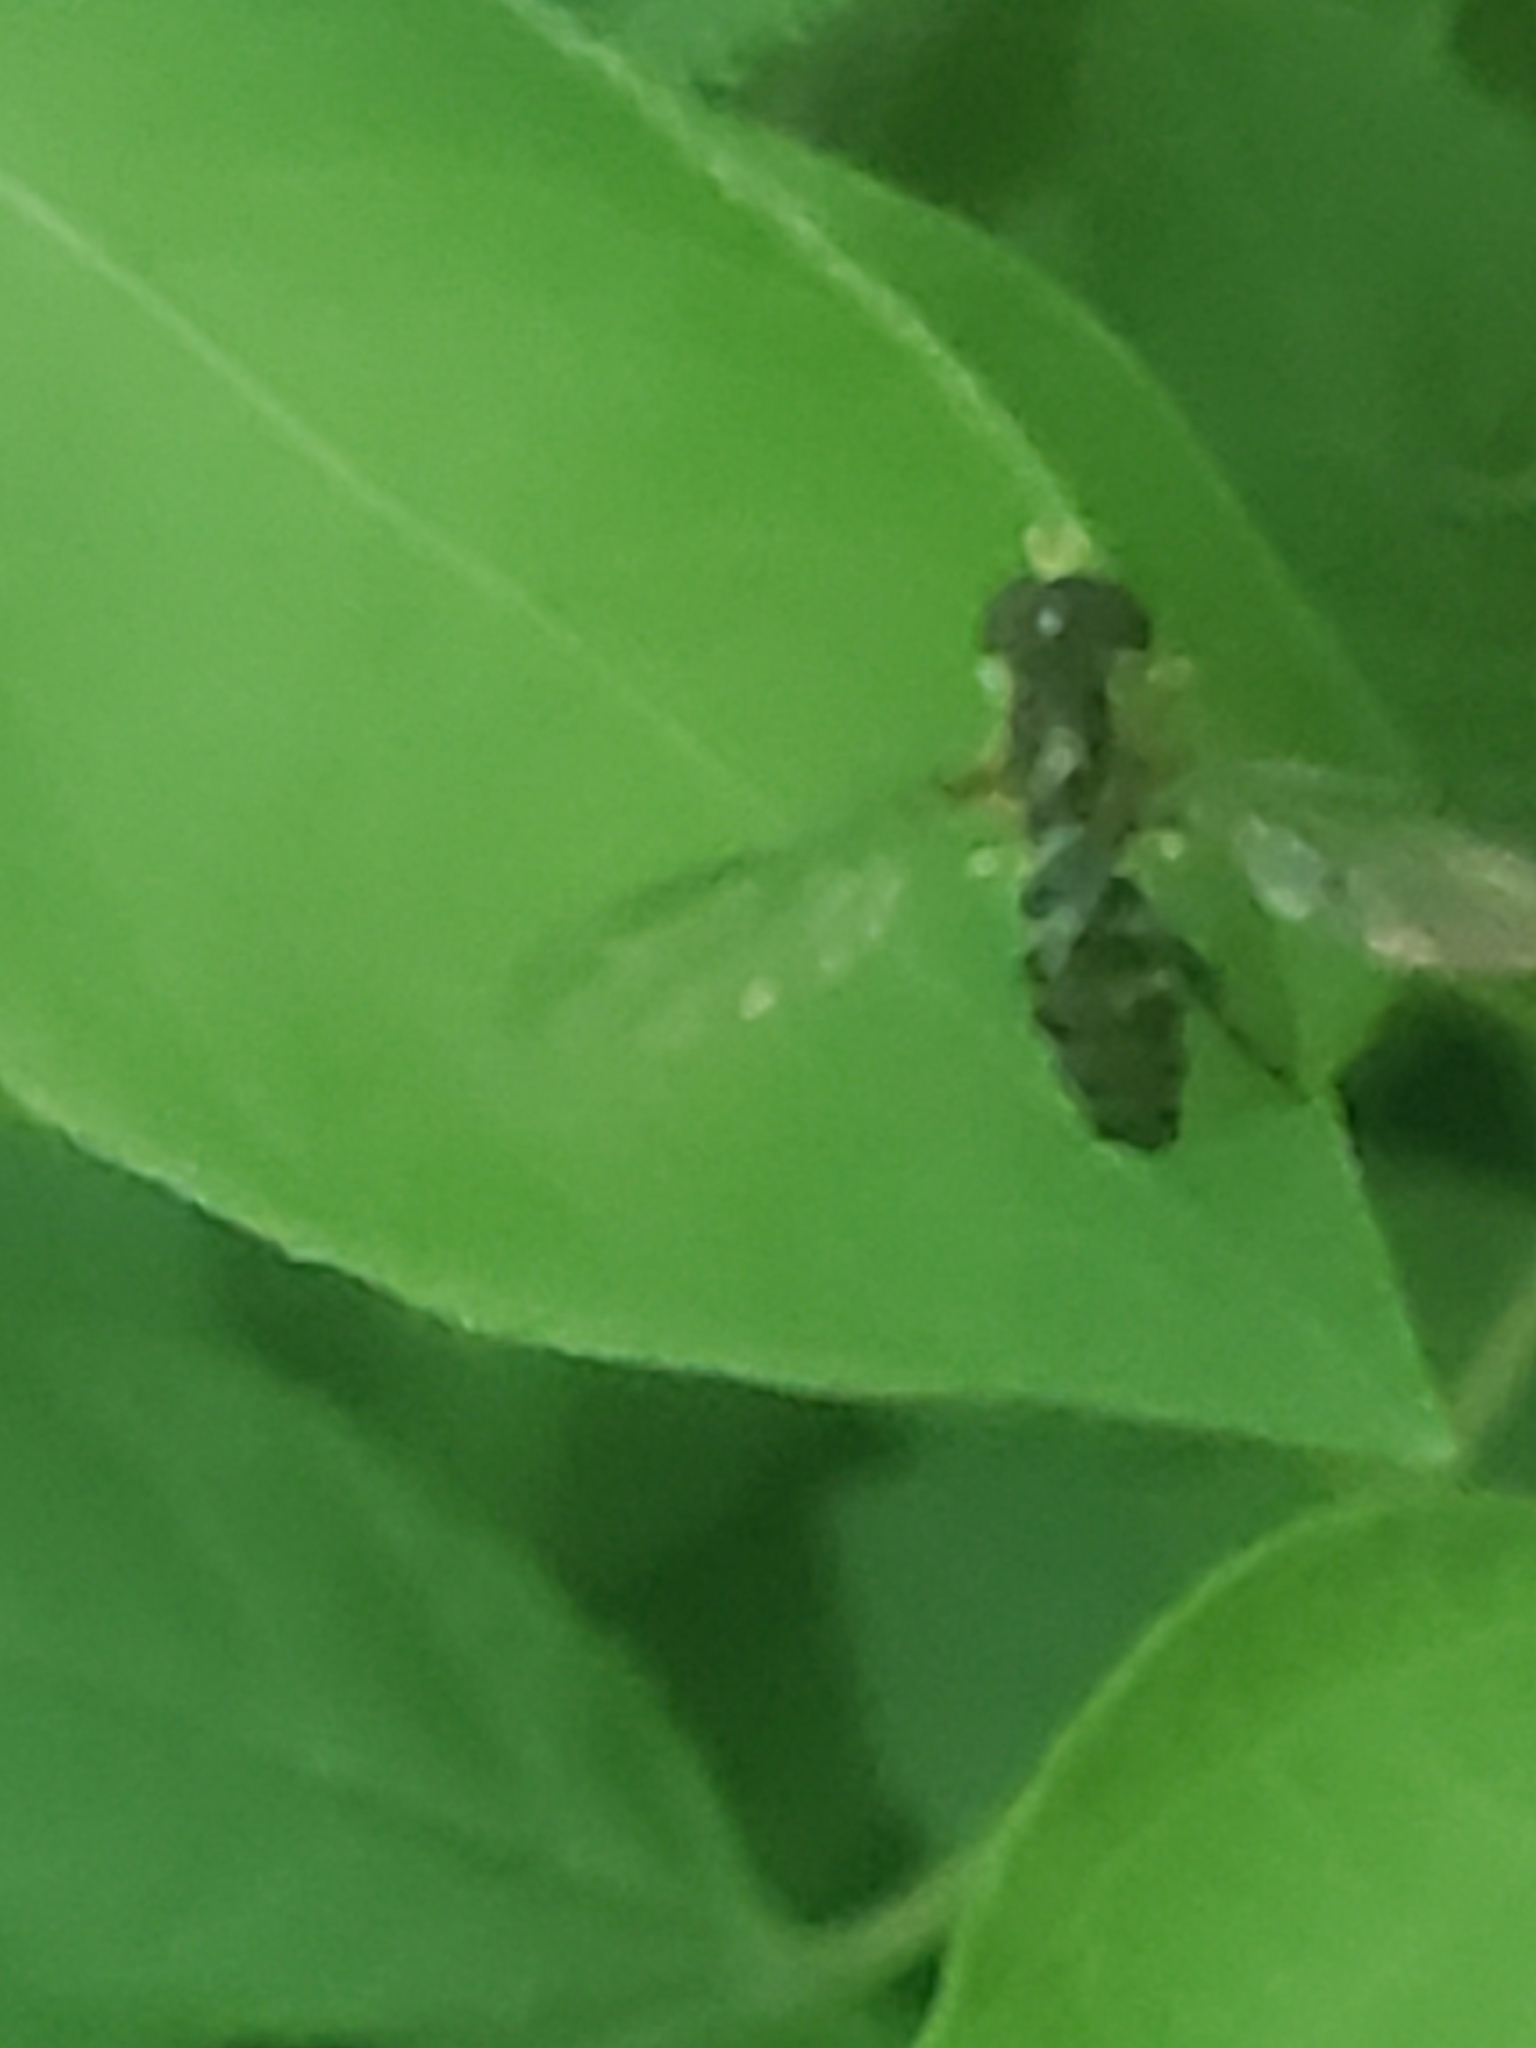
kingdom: Animalia
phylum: Arthropoda
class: Insecta
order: Diptera
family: Syrphidae
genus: Toxomerus
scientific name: Toxomerus geminatus
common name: Eastern calligrapher
